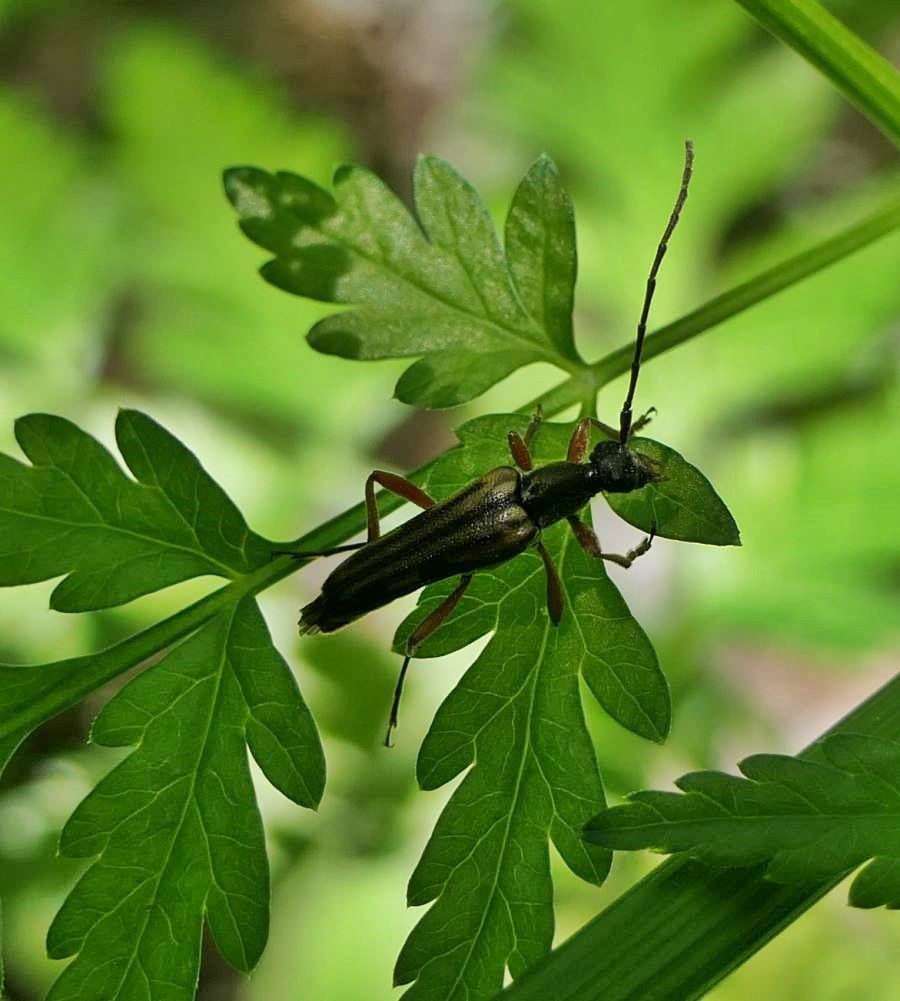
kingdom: Animalia
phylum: Arthropoda
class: Insecta
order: Coleoptera
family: Cerambycidae
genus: Analeptura
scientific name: Analeptura lineola
